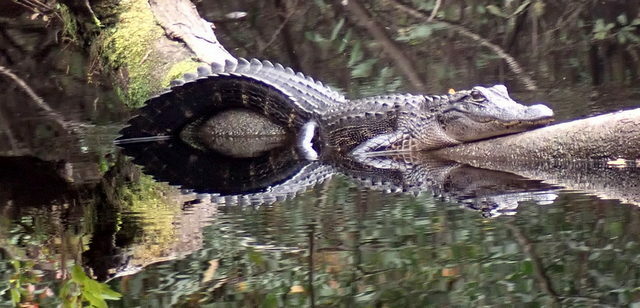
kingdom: Animalia
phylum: Chordata
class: Crocodylia
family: Alligatoridae
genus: Alligator
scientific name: Alligator mississippiensis
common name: American alligator
